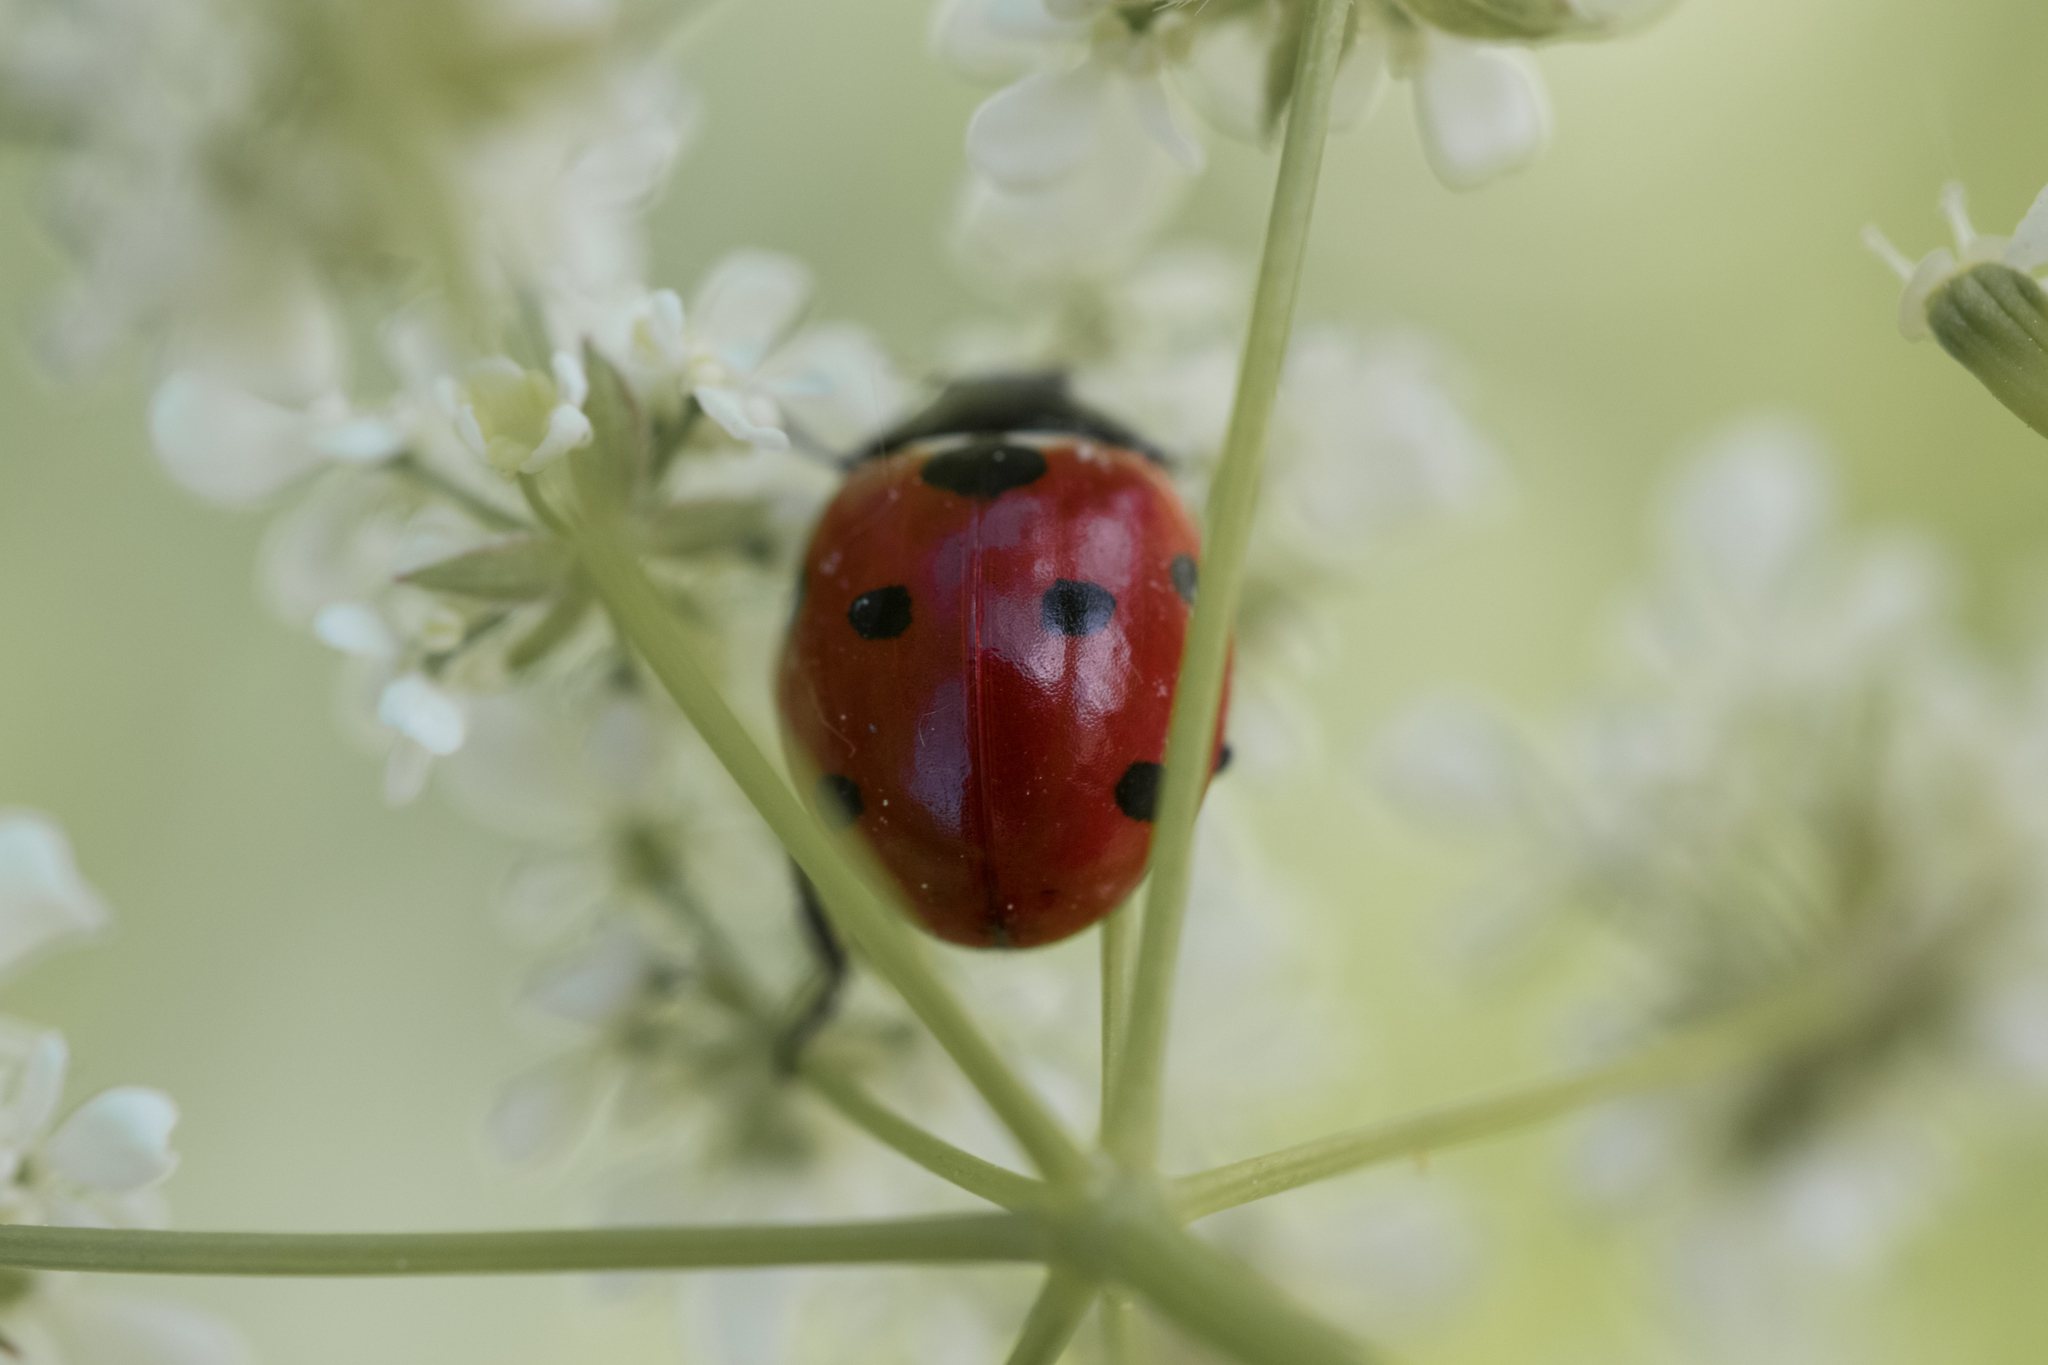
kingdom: Animalia
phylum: Arthropoda
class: Insecta
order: Coleoptera
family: Coccinellidae
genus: Coccinella
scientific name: Coccinella septempunctata
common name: Sevenspotted lady beetle
